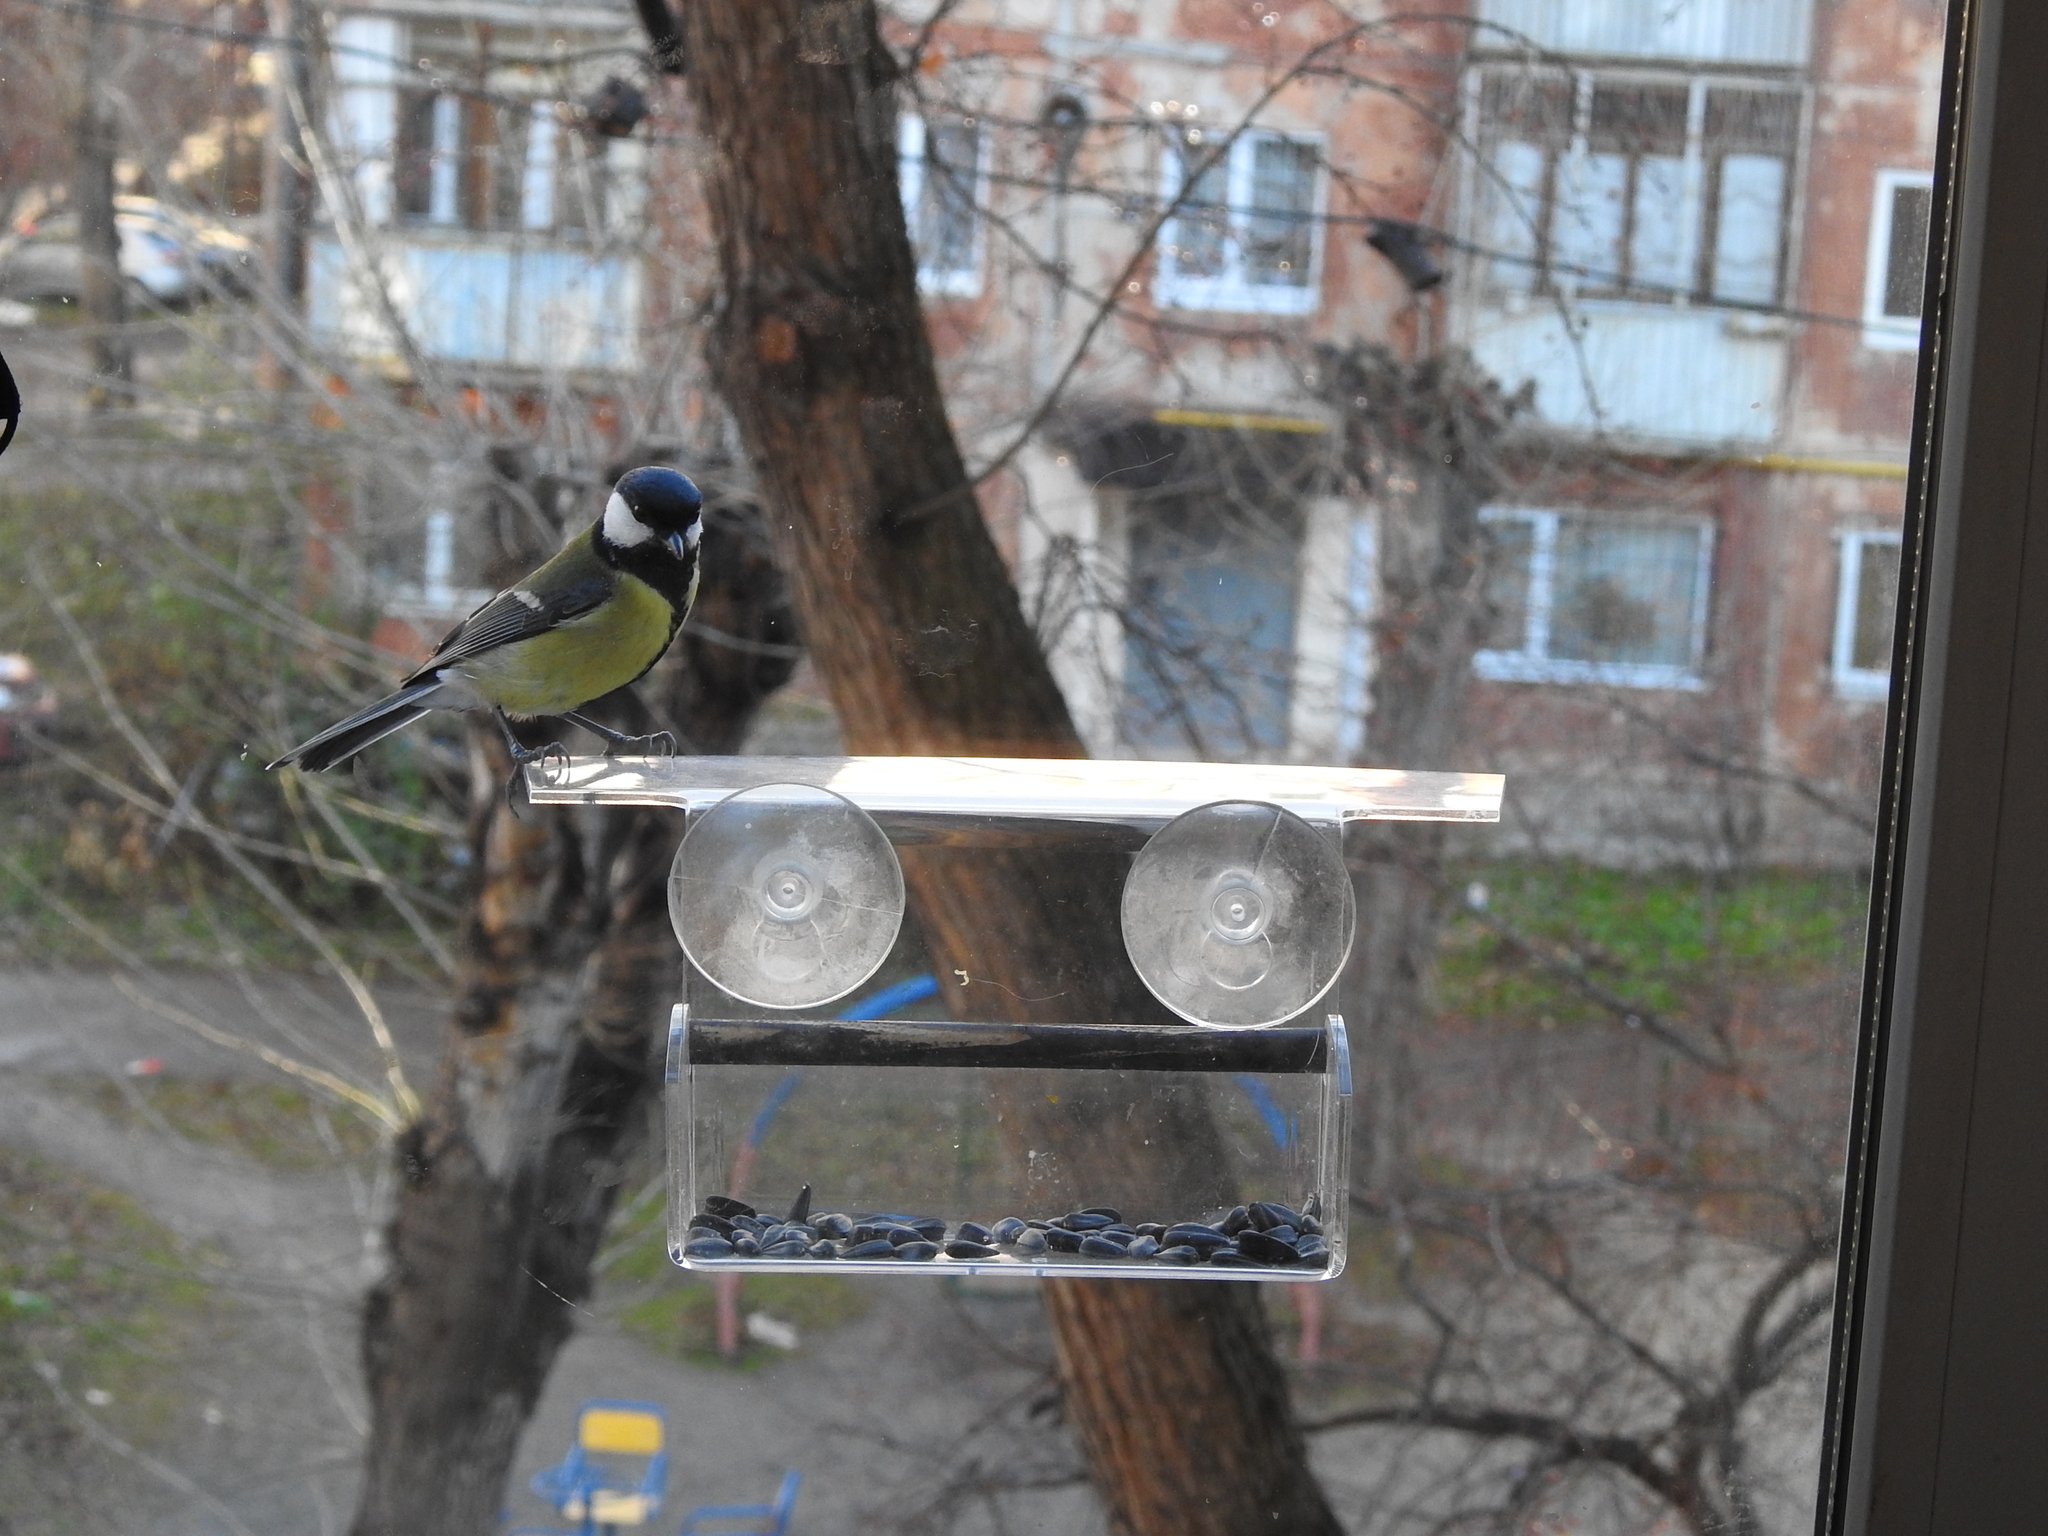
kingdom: Animalia
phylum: Chordata
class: Aves
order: Passeriformes
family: Paridae
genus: Parus
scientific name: Parus major
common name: Great tit
